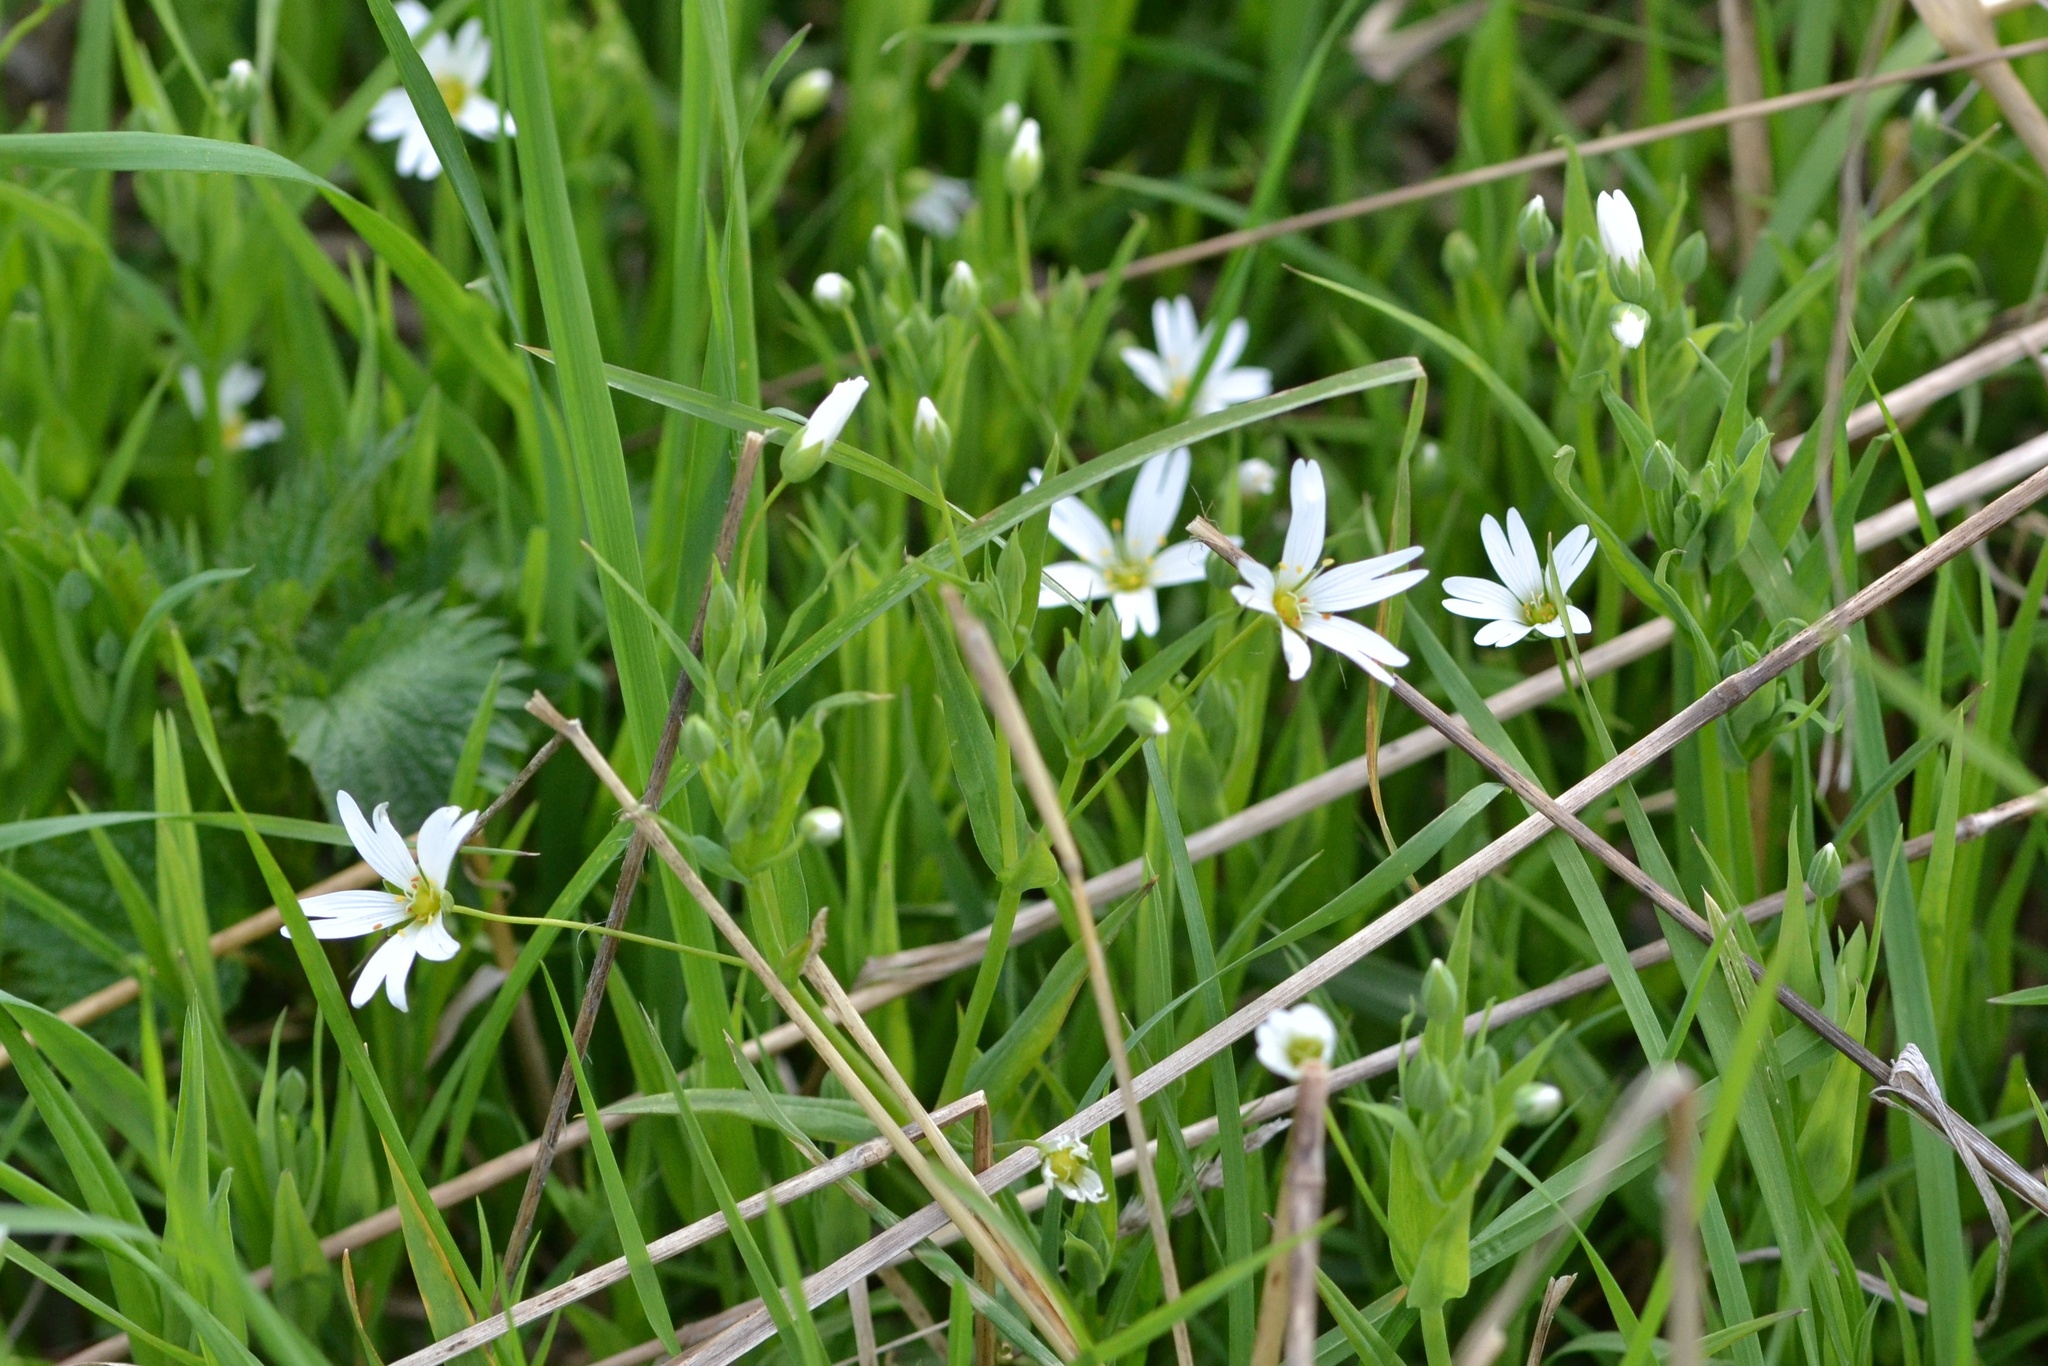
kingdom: Plantae
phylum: Tracheophyta
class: Magnoliopsida
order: Caryophyllales
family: Caryophyllaceae
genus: Rabelera
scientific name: Rabelera holostea
